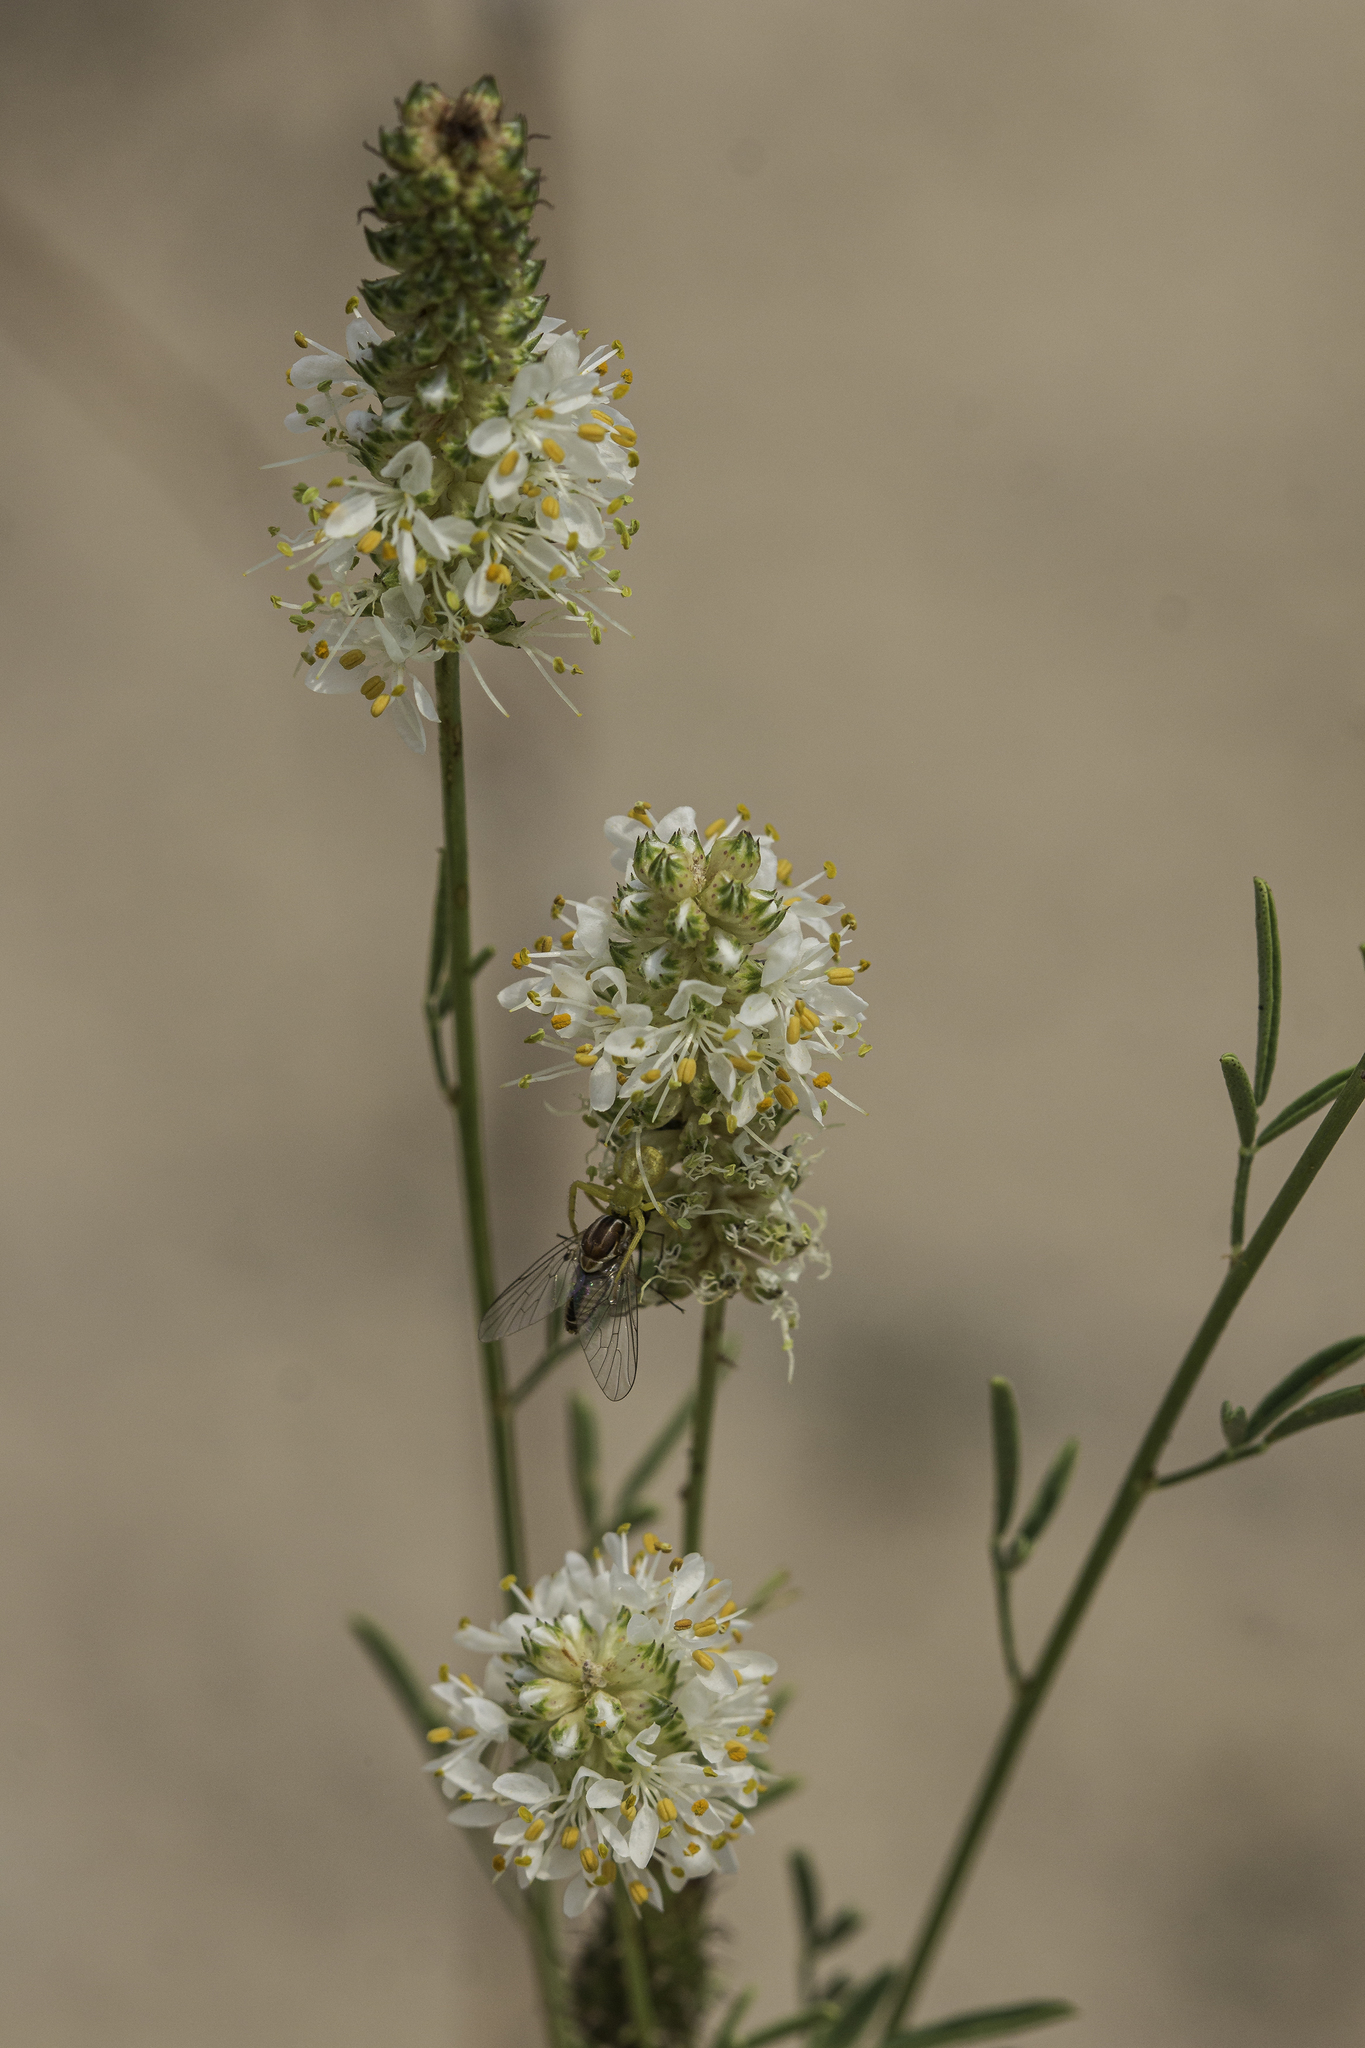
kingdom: Plantae
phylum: Tracheophyta
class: Magnoliopsida
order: Fabales
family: Fabaceae
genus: Dalea
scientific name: Dalea candida
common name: White prairie-clover
